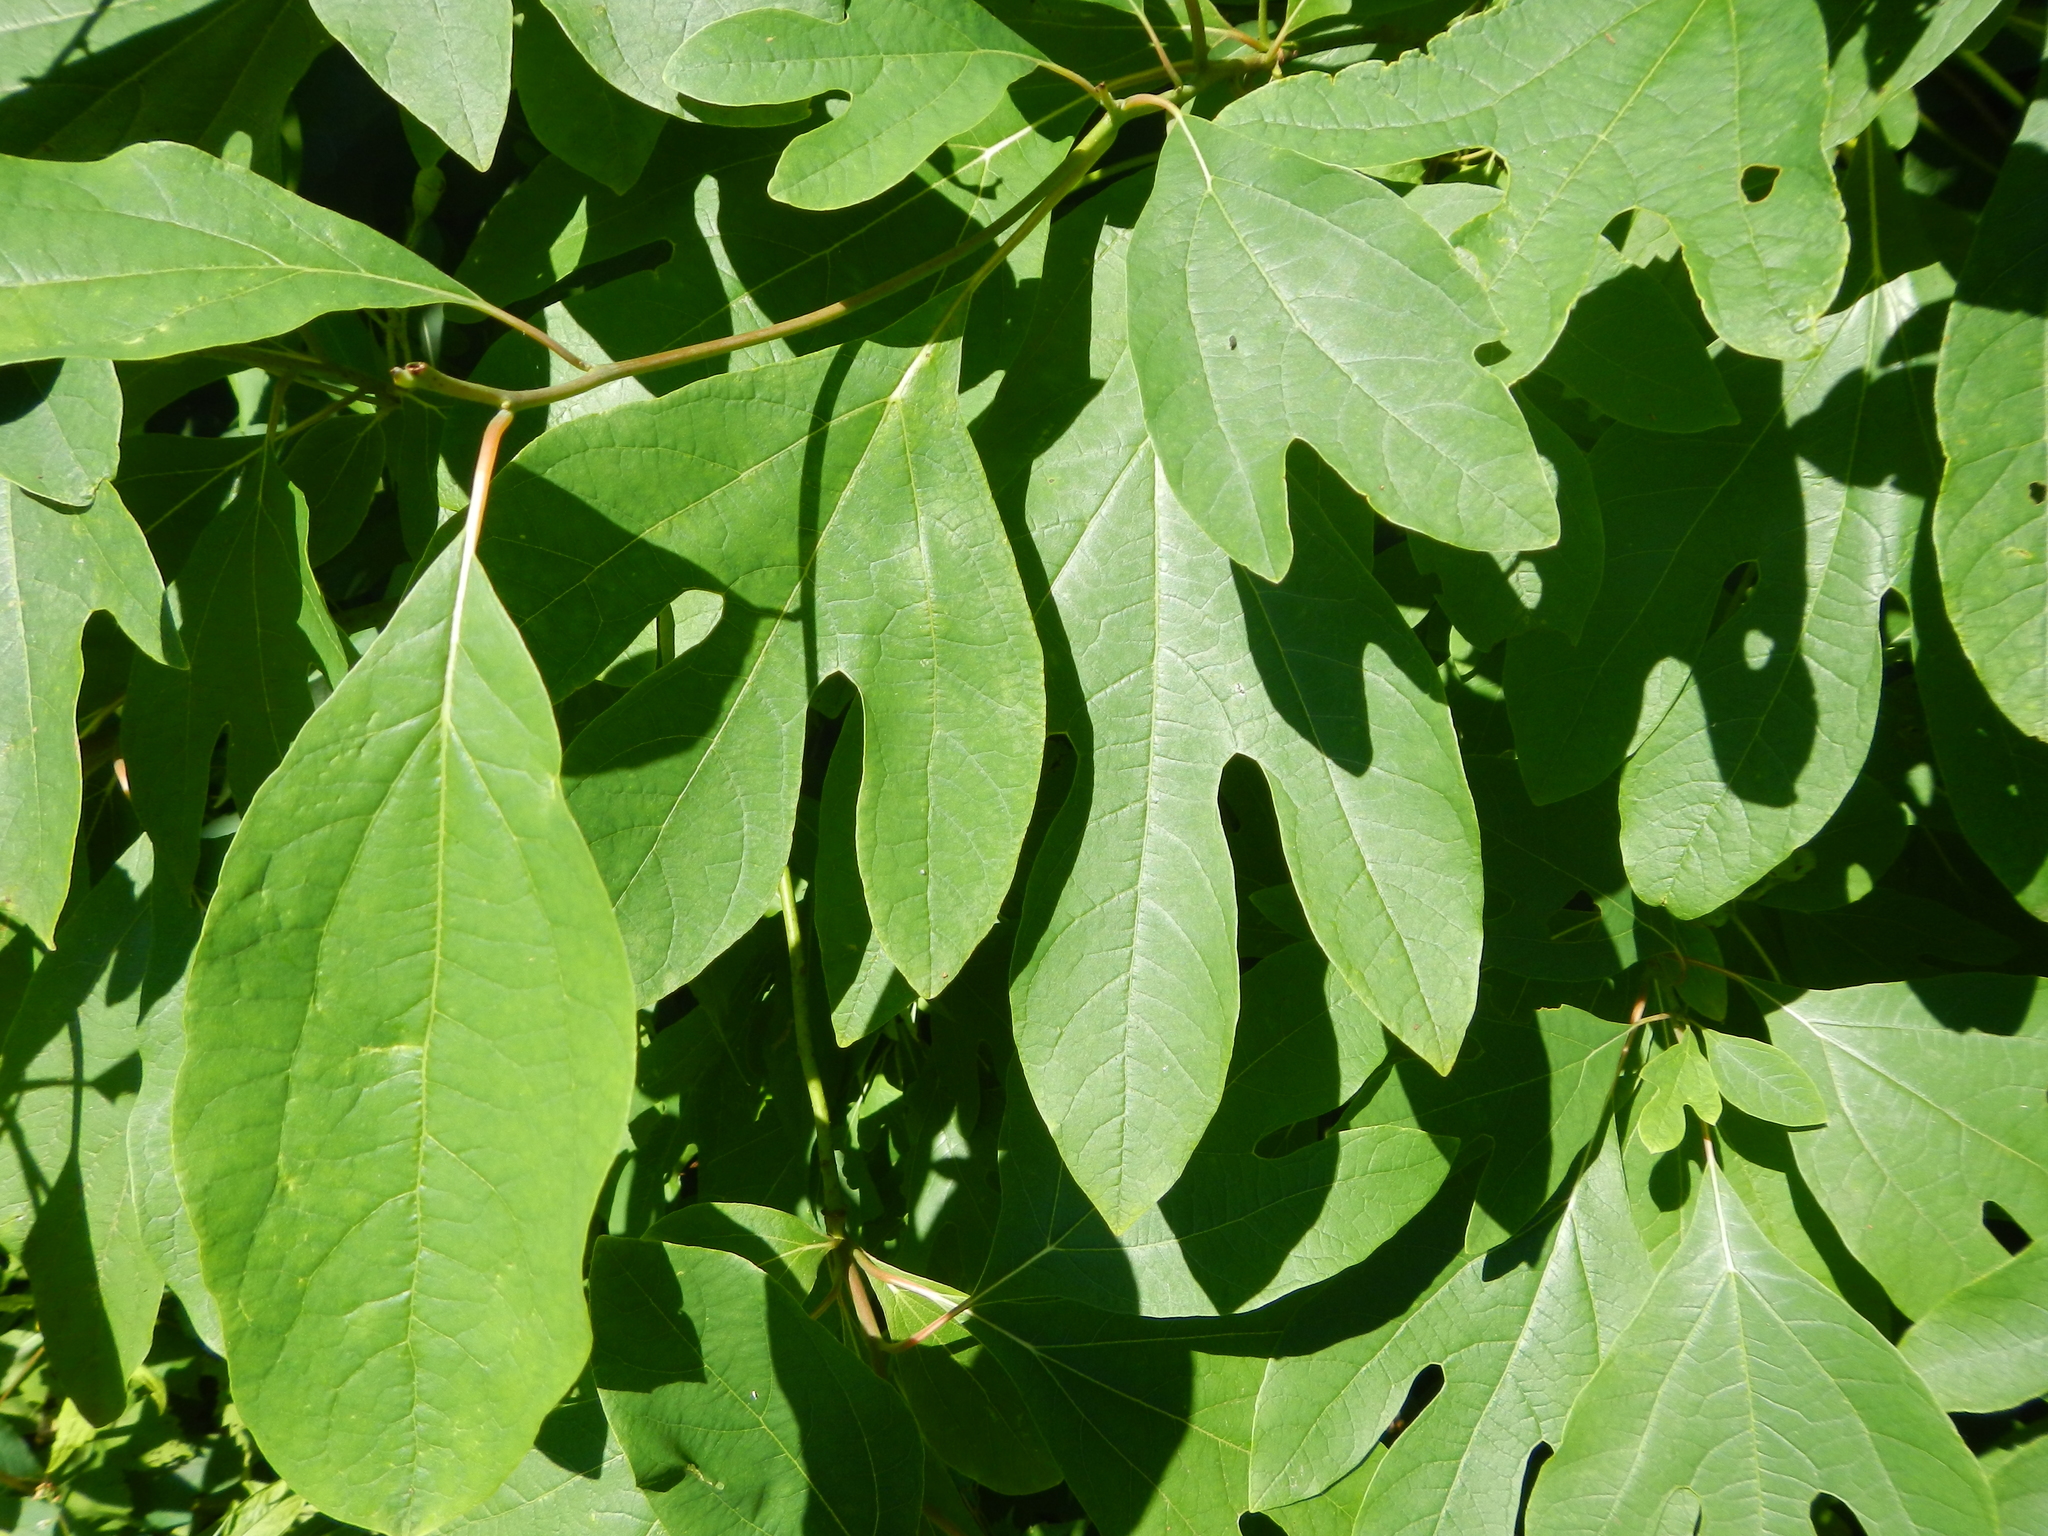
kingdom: Plantae
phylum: Tracheophyta
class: Magnoliopsida
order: Laurales
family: Lauraceae
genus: Sassafras
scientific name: Sassafras albidum
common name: Sassafras
